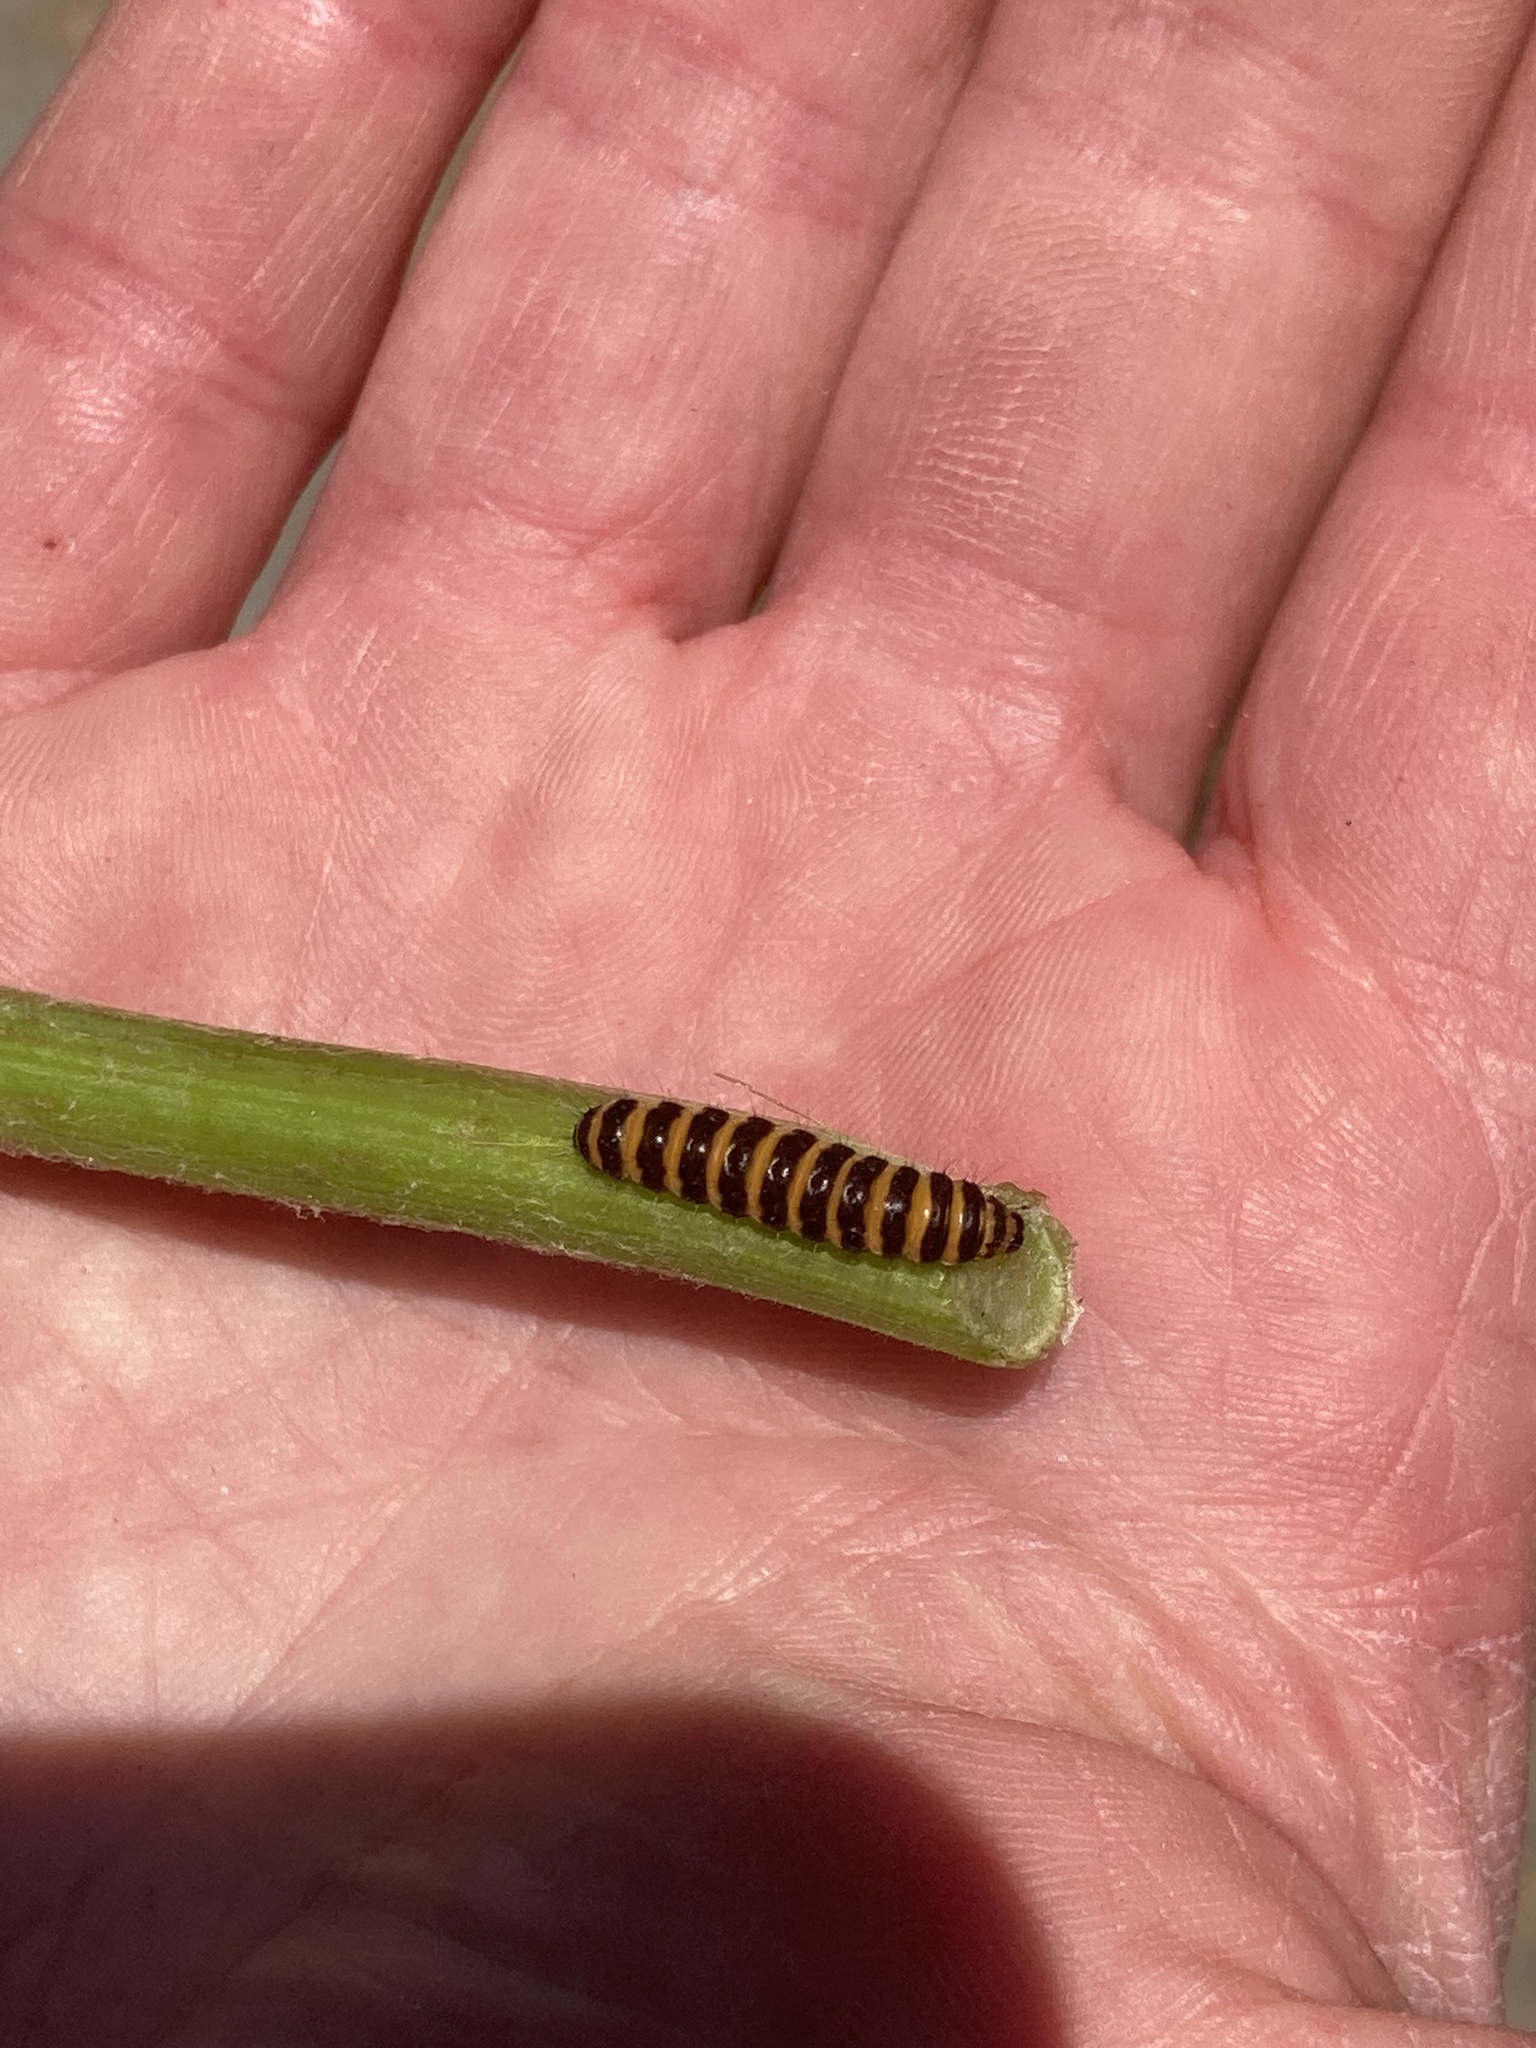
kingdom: Animalia
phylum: Arthropoda
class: Insecta
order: Lepidoptera
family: Erebidae
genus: Tyria
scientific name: Tyria jacobaeae
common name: Cinnabar
